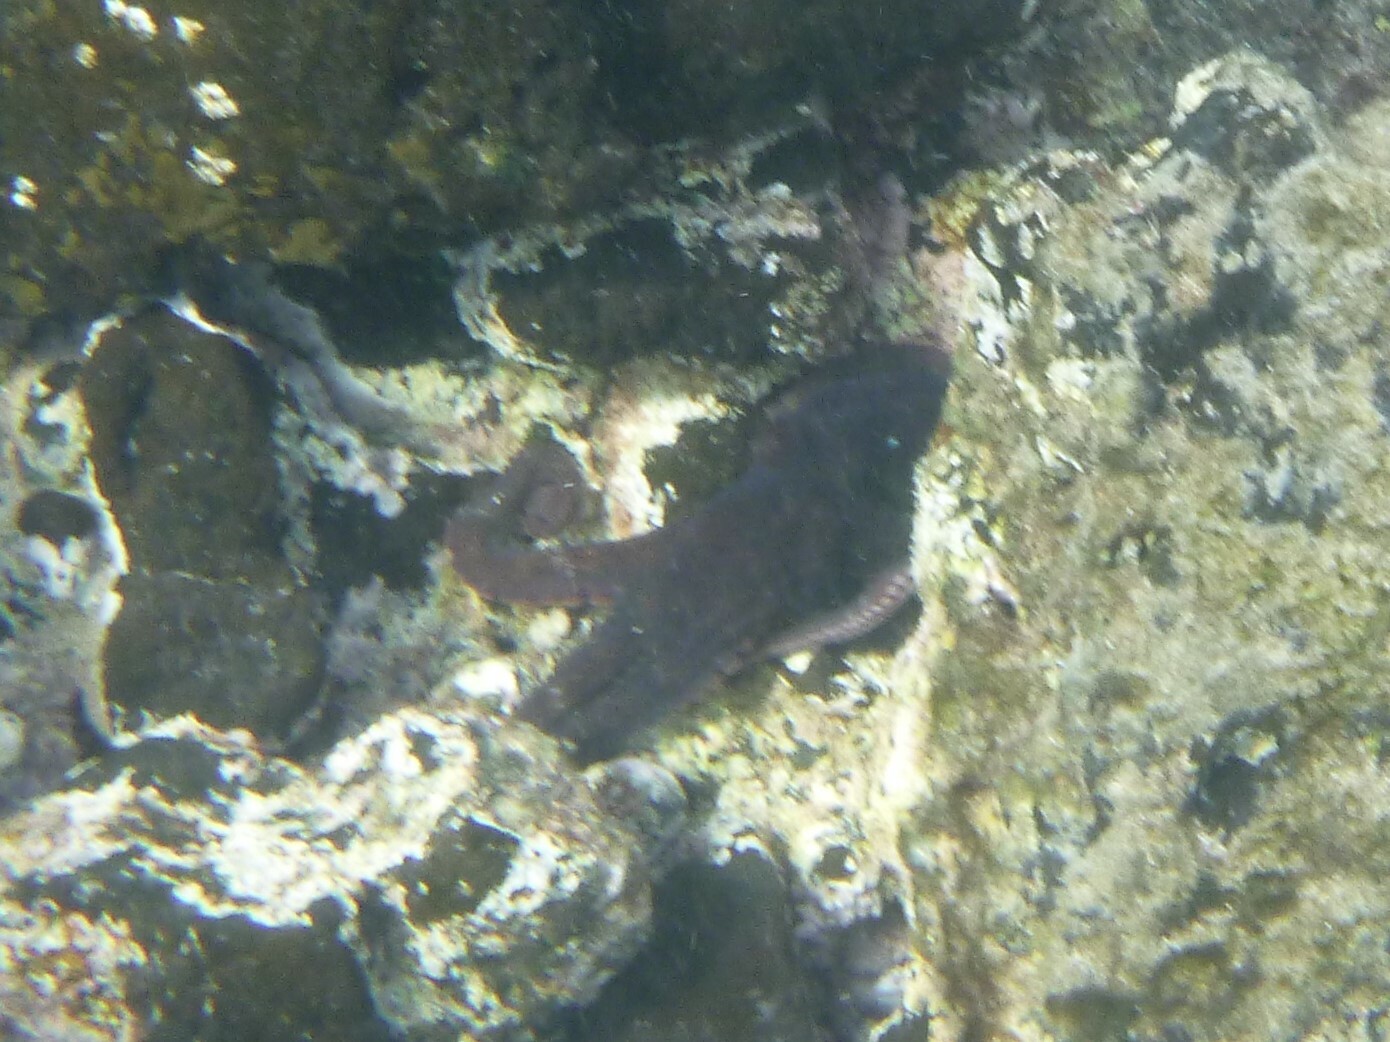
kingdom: Animalia
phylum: Mollusca
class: Cephalopoda
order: Octopoda
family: Octopodidae
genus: Octopus
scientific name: Octopus vulgaris
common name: Common octopus
